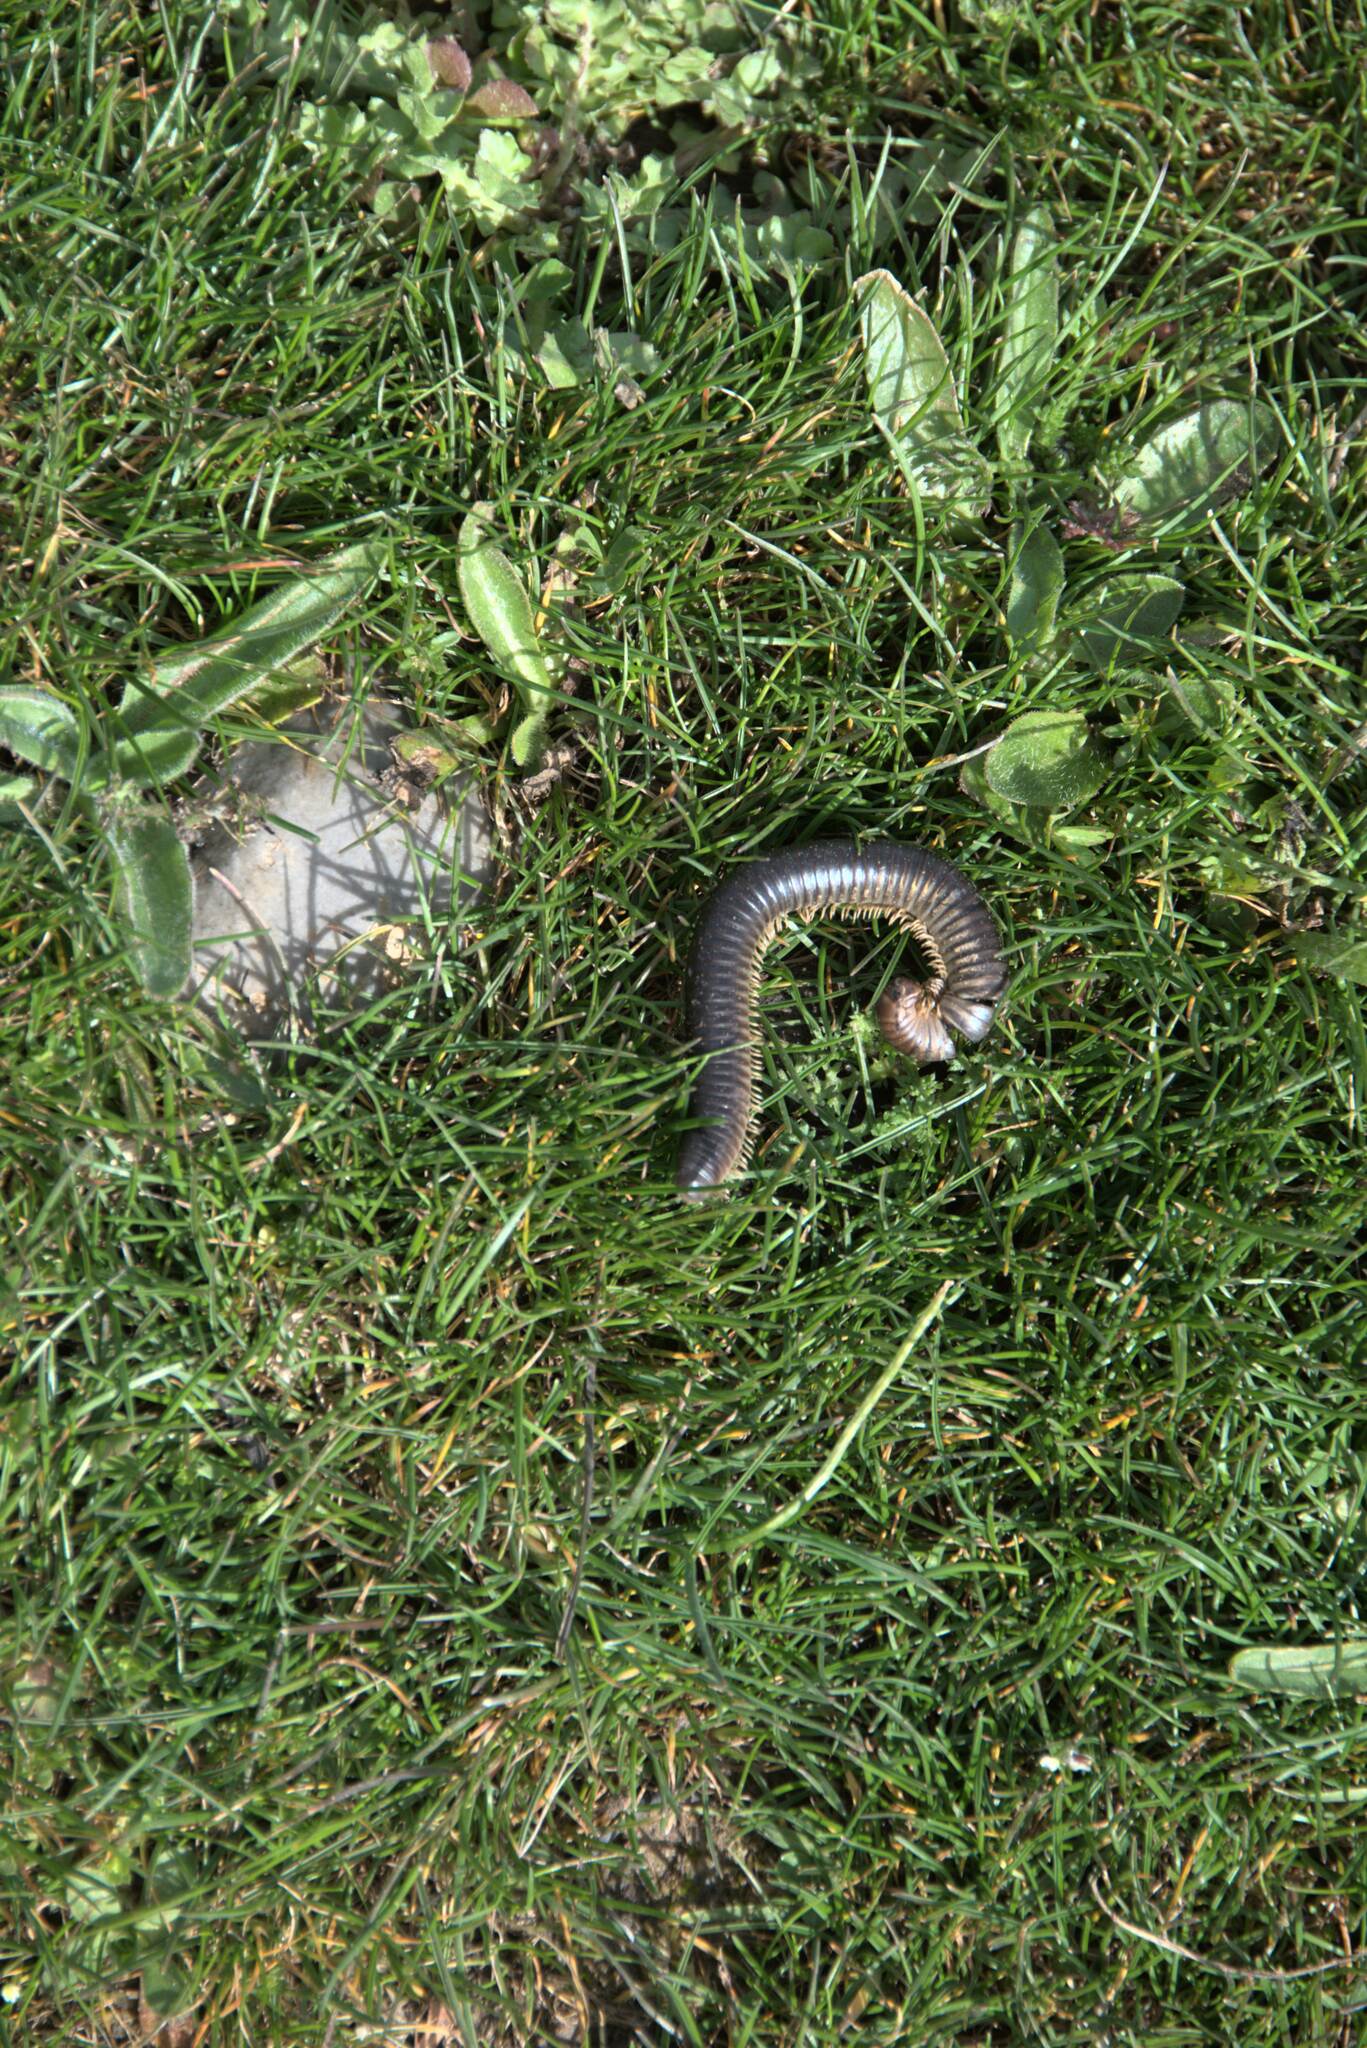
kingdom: Animalia
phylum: Arthropoda
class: Diplopoda
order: Julida
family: Julidae
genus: Pachyiulus
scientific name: Pachyiulus flavipes
